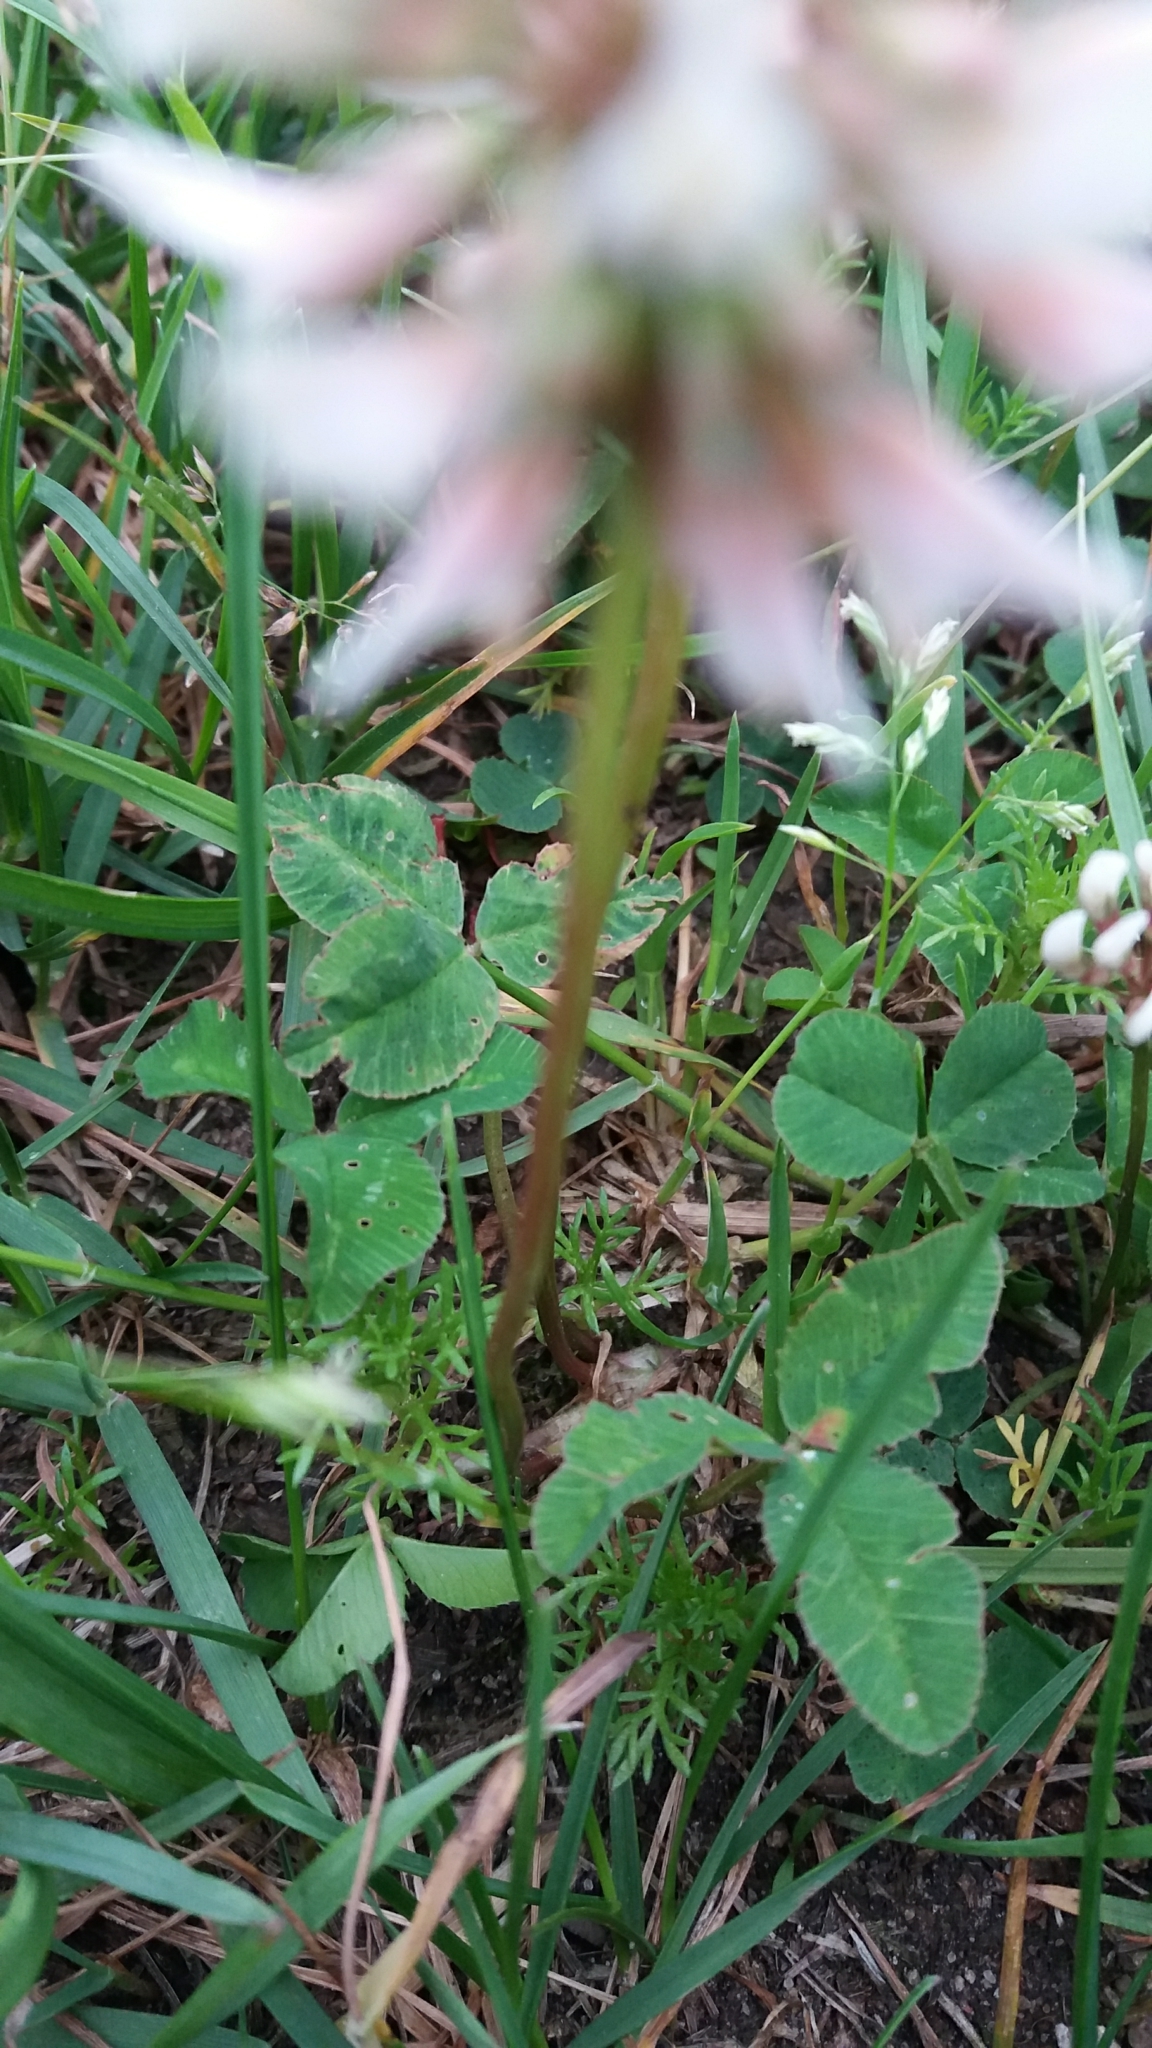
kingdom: Plantae
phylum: Tracheophyta
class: Magnoliopsida
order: Fabales
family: Fabaceae
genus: Trifolium
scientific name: Trifolium repens
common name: White clover
